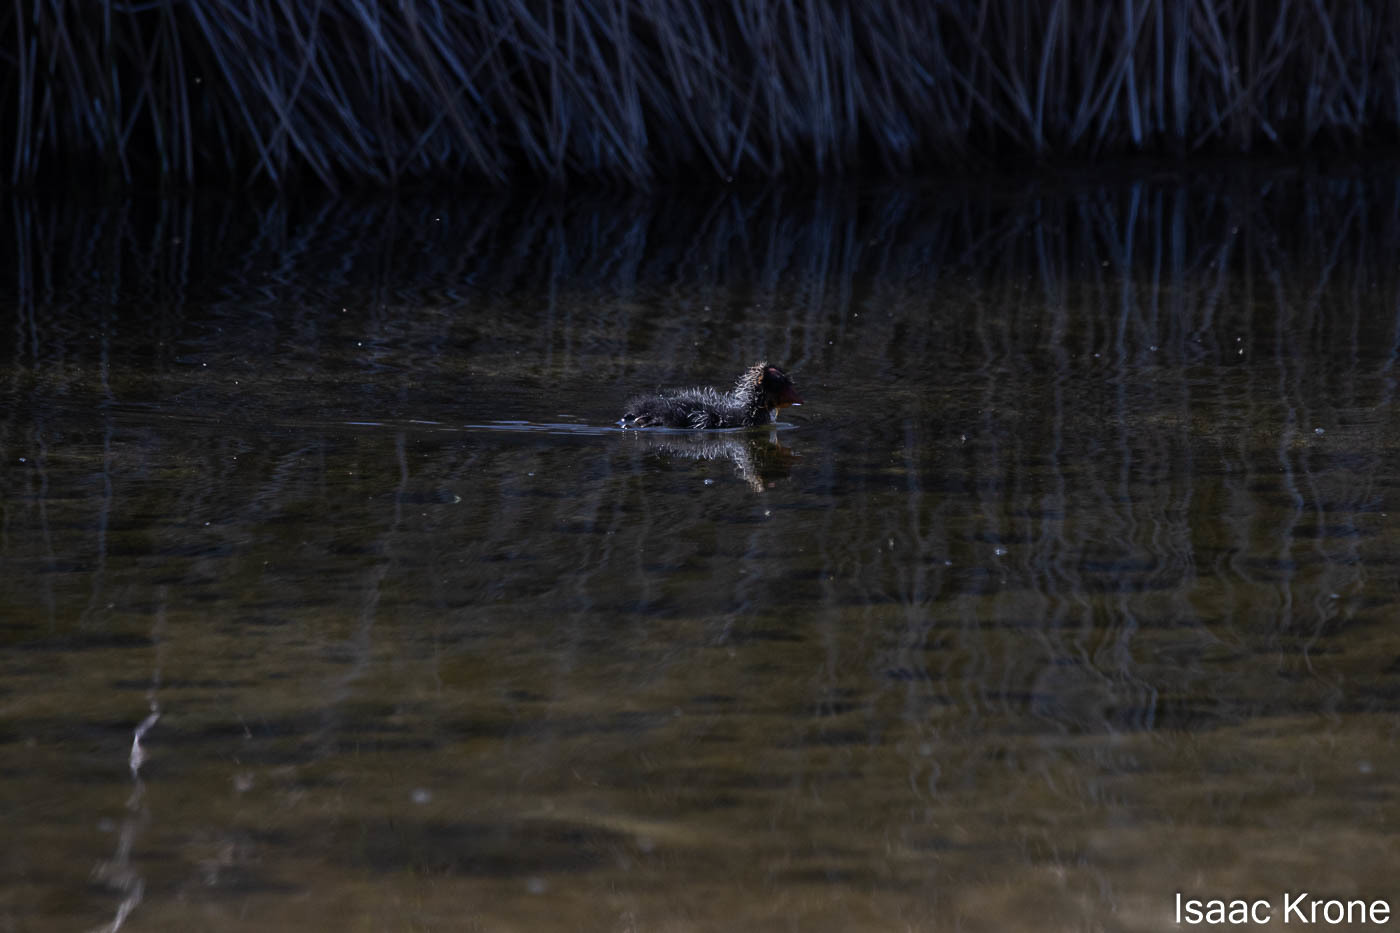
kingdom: Animalia
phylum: Chordata
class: Aves
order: Gruiformes
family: Rallidae
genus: Fulica
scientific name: Fulica americana
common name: American coot
